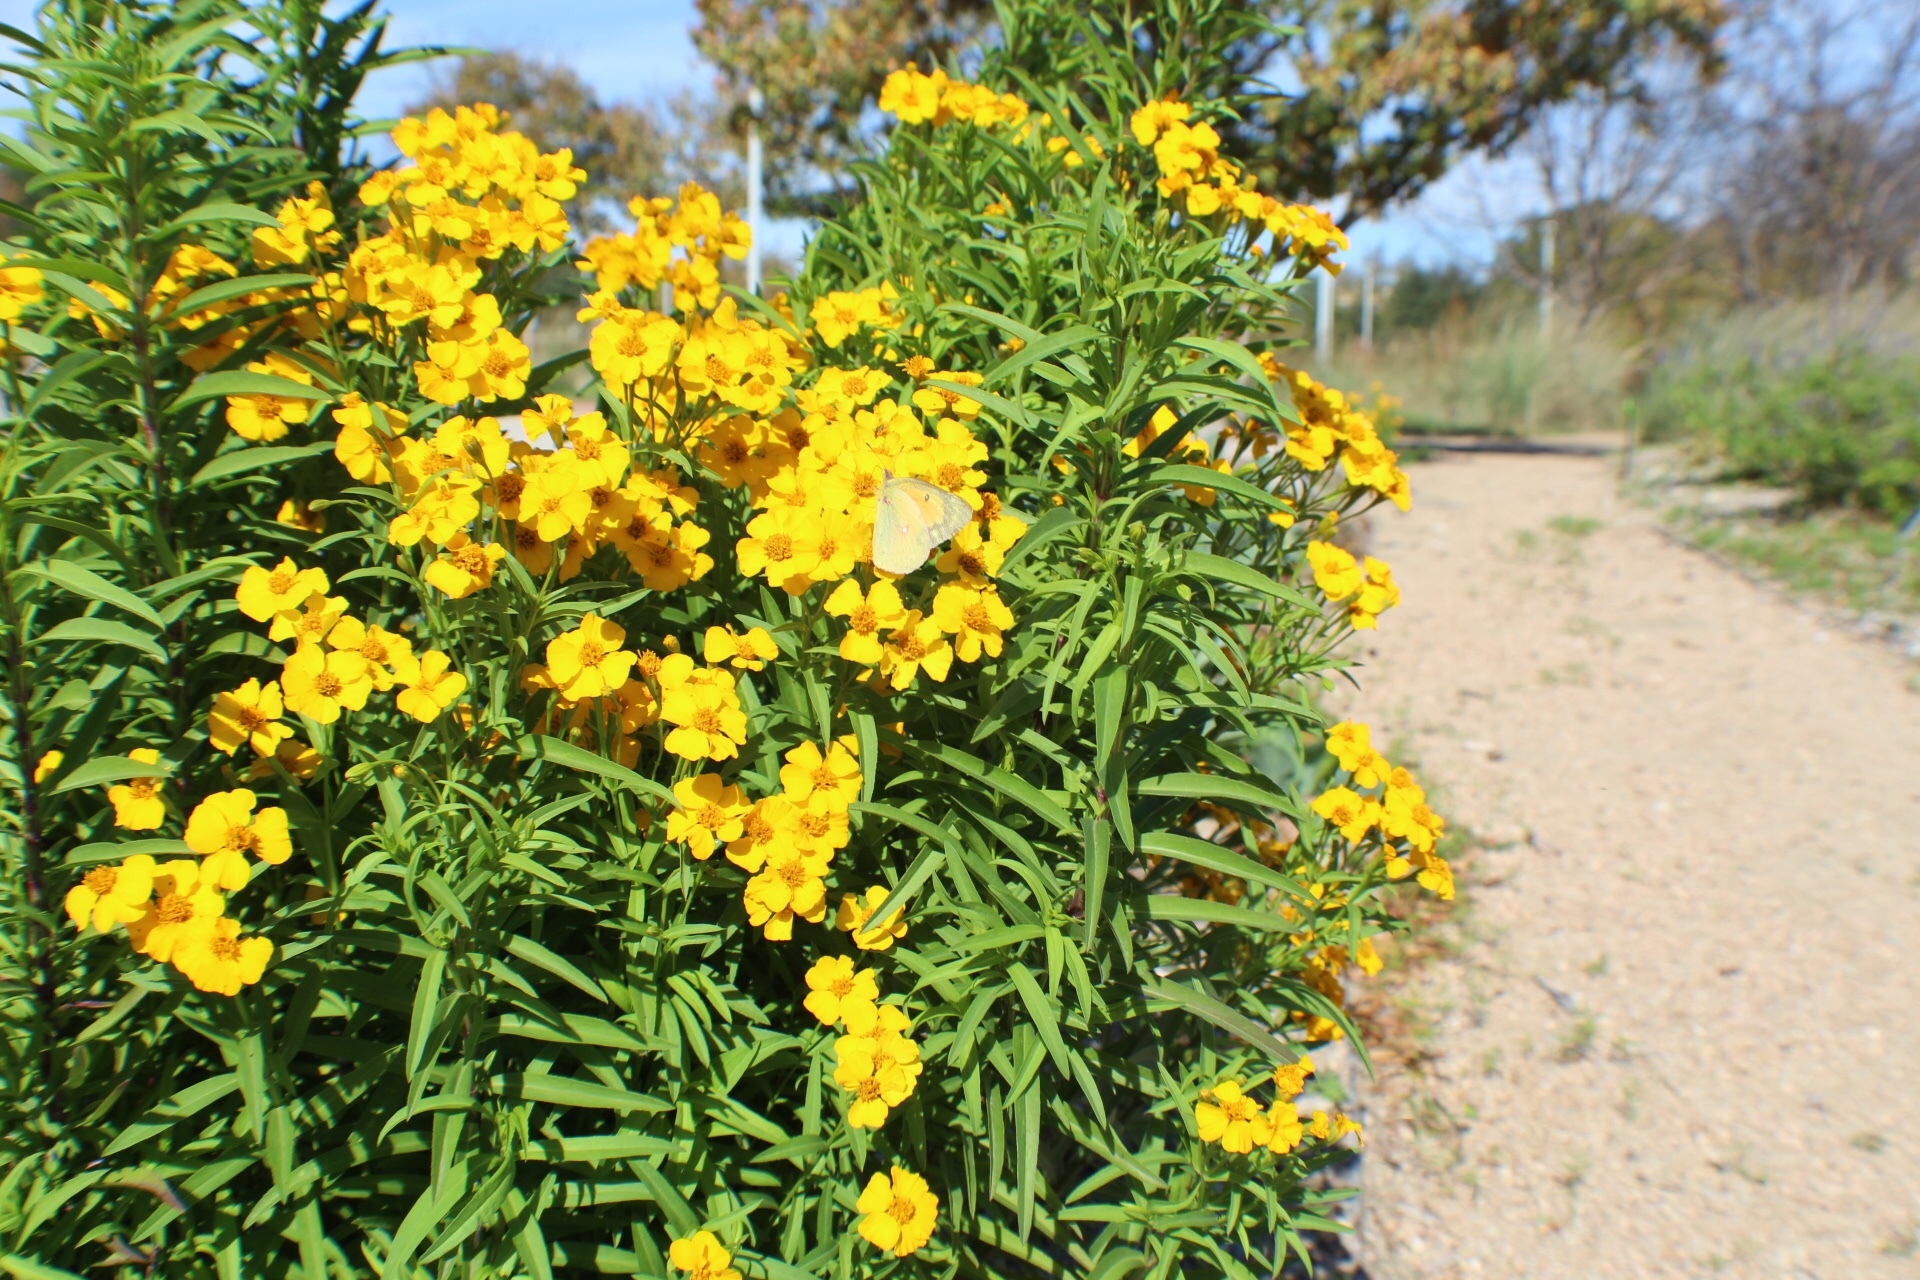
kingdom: Animalia
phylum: Arthropoda
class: Insecta
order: Lepidoptera
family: Pieridae
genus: Colias
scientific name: Colias eurytheme
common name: Alfalfa butterfly
